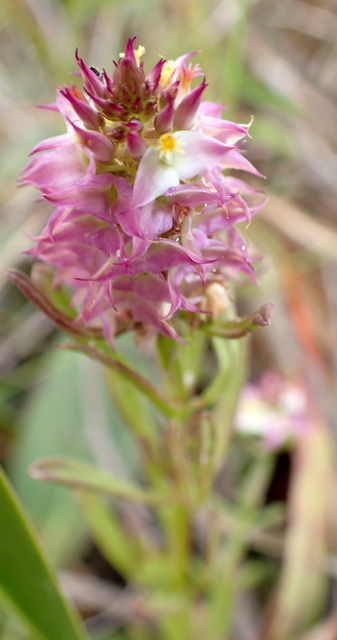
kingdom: Plantae
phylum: Tracheophyta
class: Magnoliopsida
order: Fabales
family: Polygalaceae
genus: Polygala
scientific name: Polygala cruciata
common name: Drumheads
